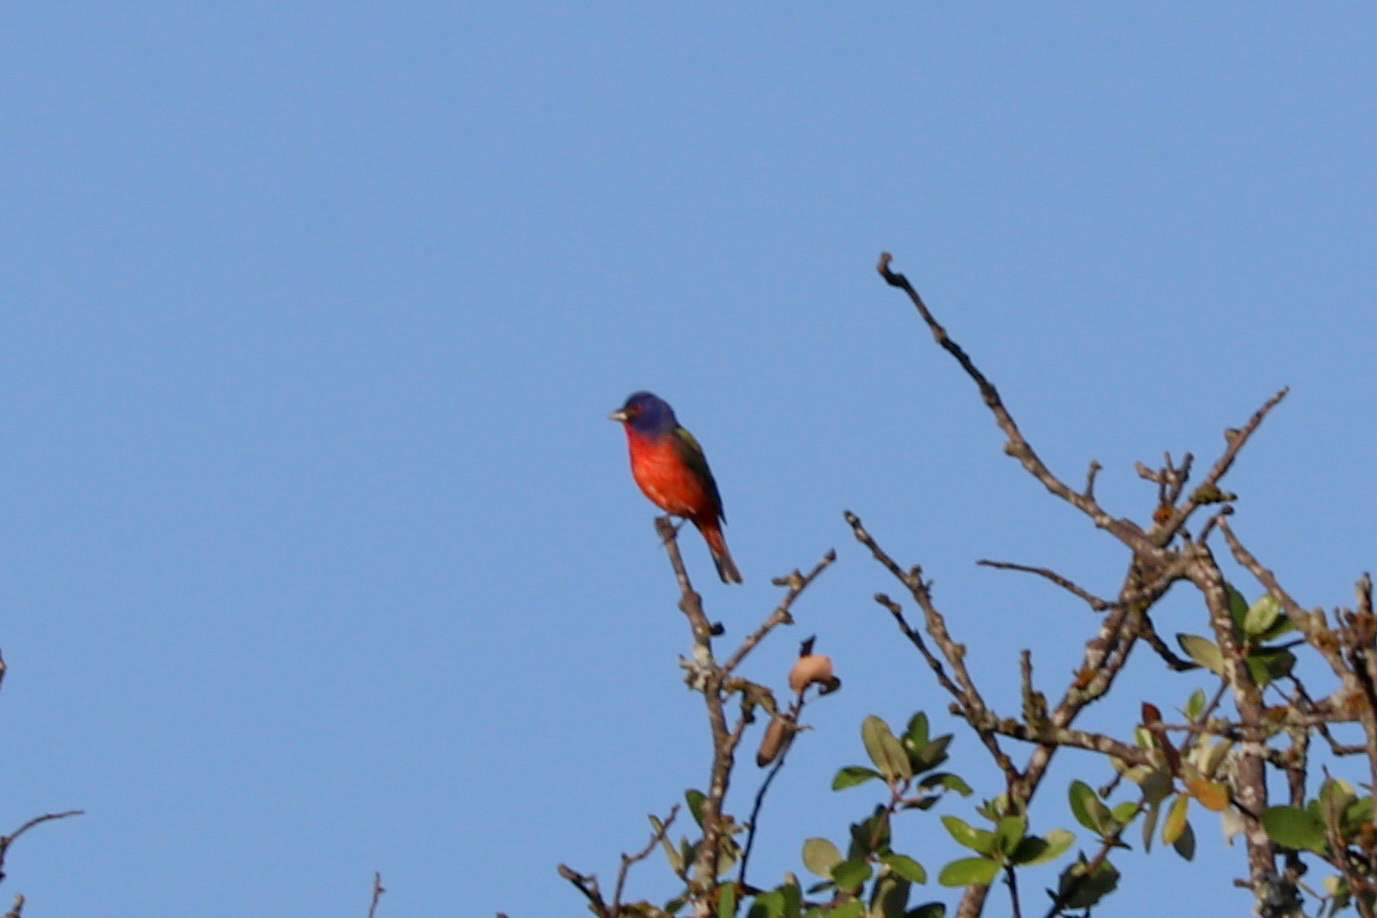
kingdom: Animalia
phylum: Chordata
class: Aves
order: Passeriformes
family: Cardinalidae
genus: Passerina
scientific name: Passerina ciris
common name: Painted bunting
